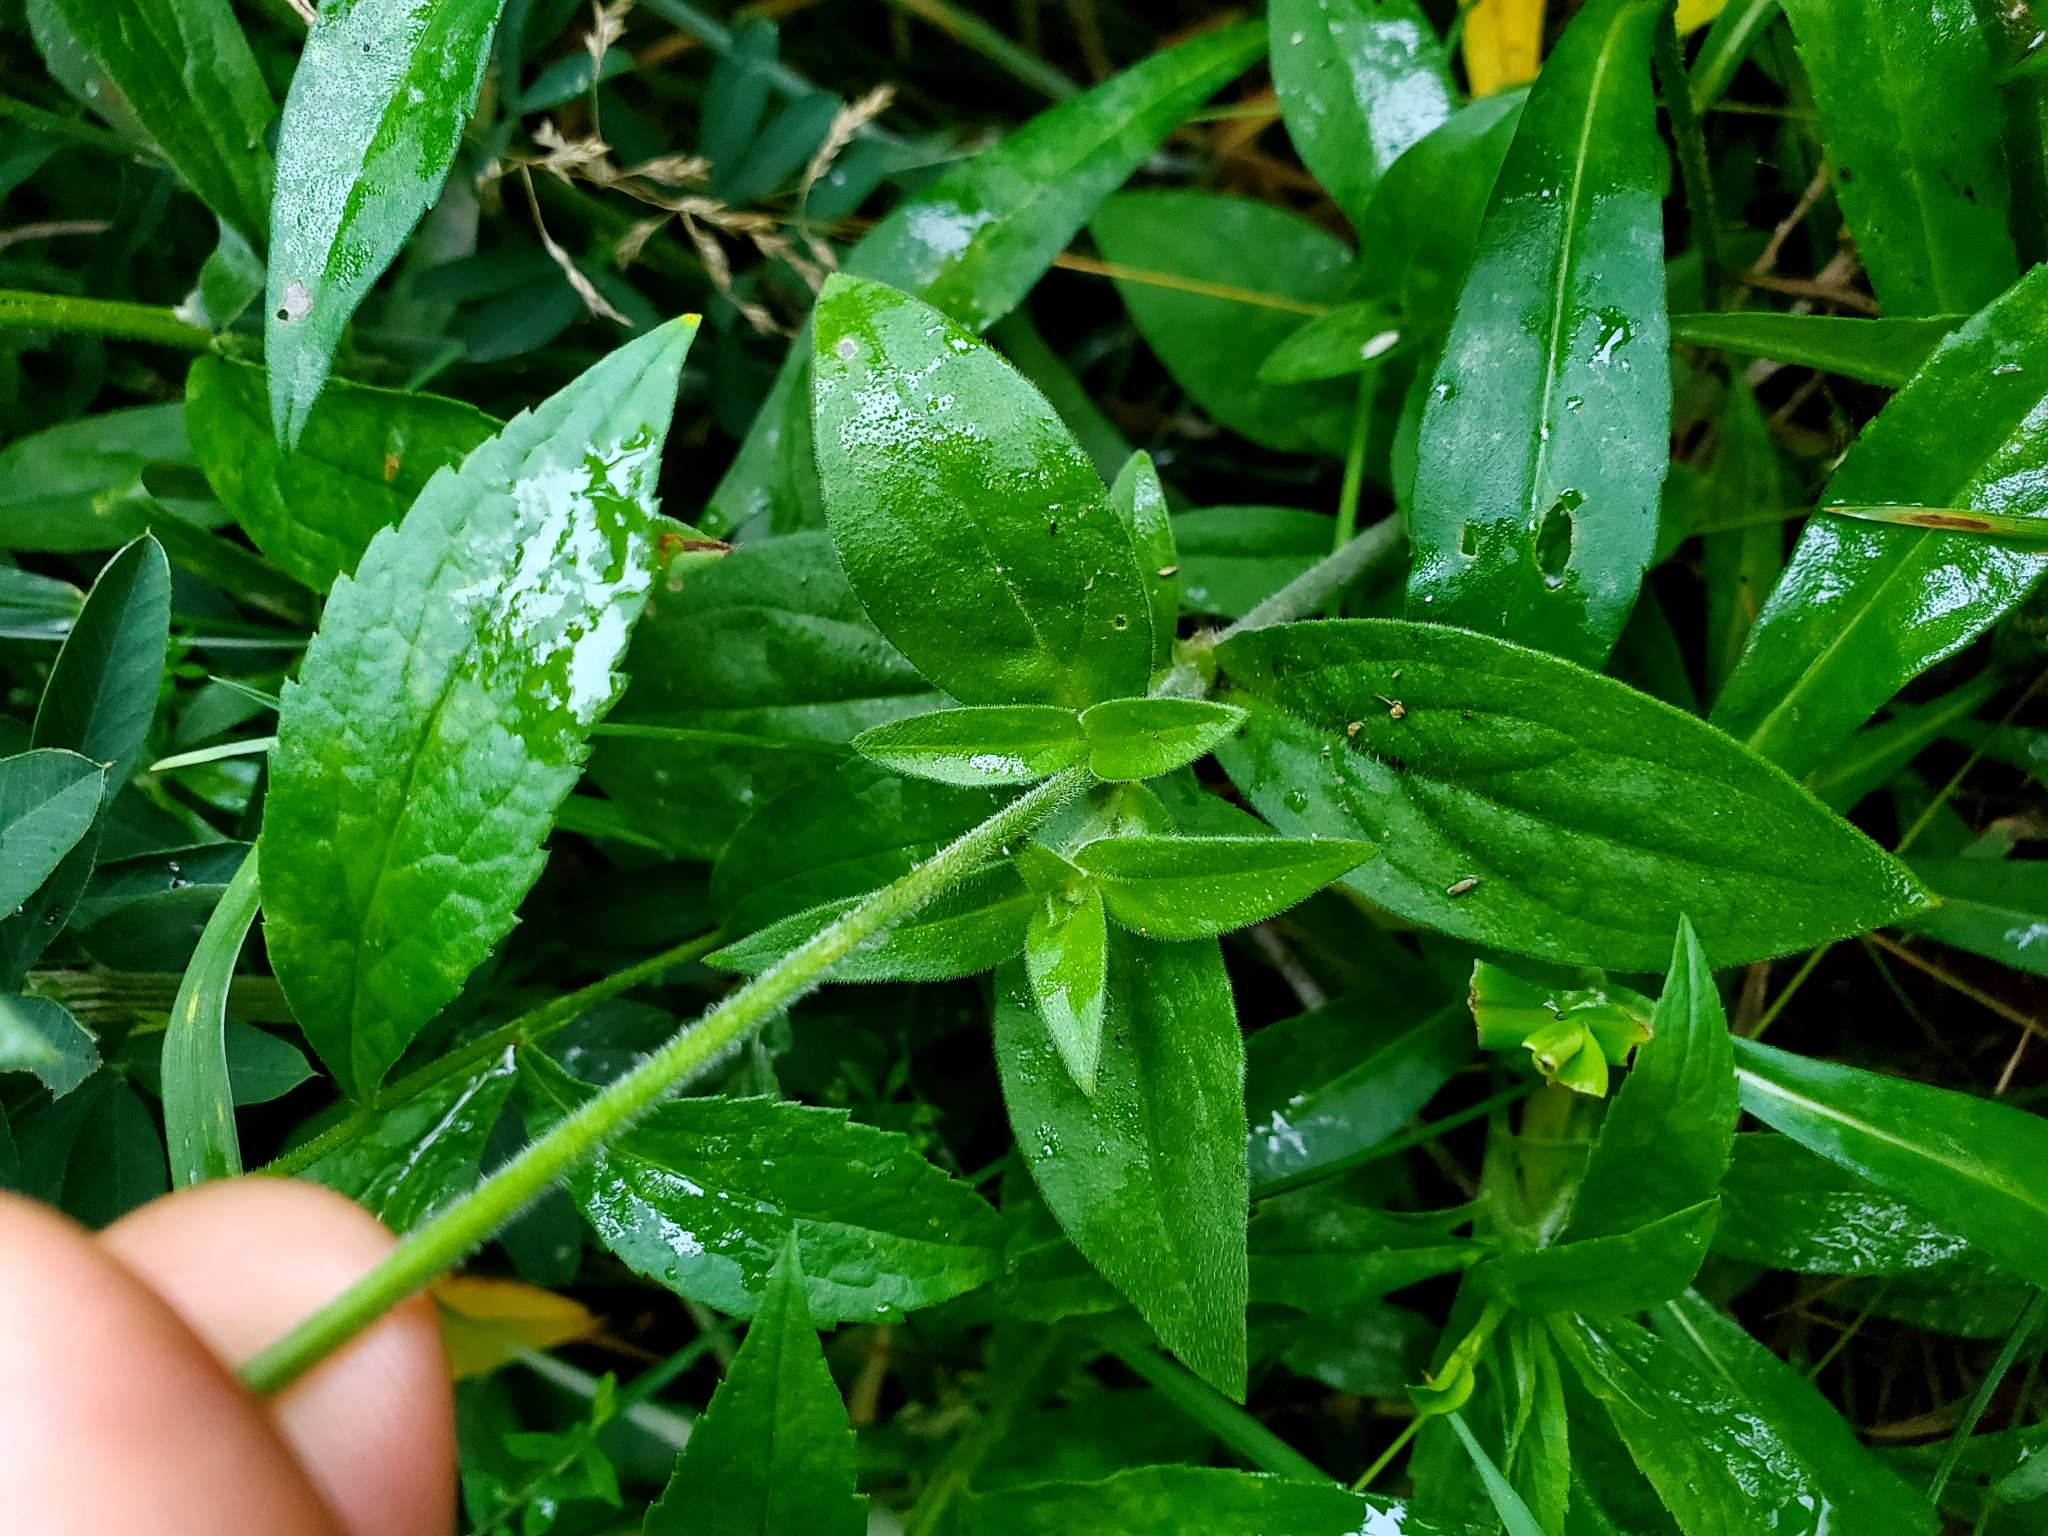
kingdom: Plantae
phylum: Tracheophyta
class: Magnoliopsida
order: Caryophyllales
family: Caryophyllaceae
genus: Silene
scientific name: Silene latifolia
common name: White campion
